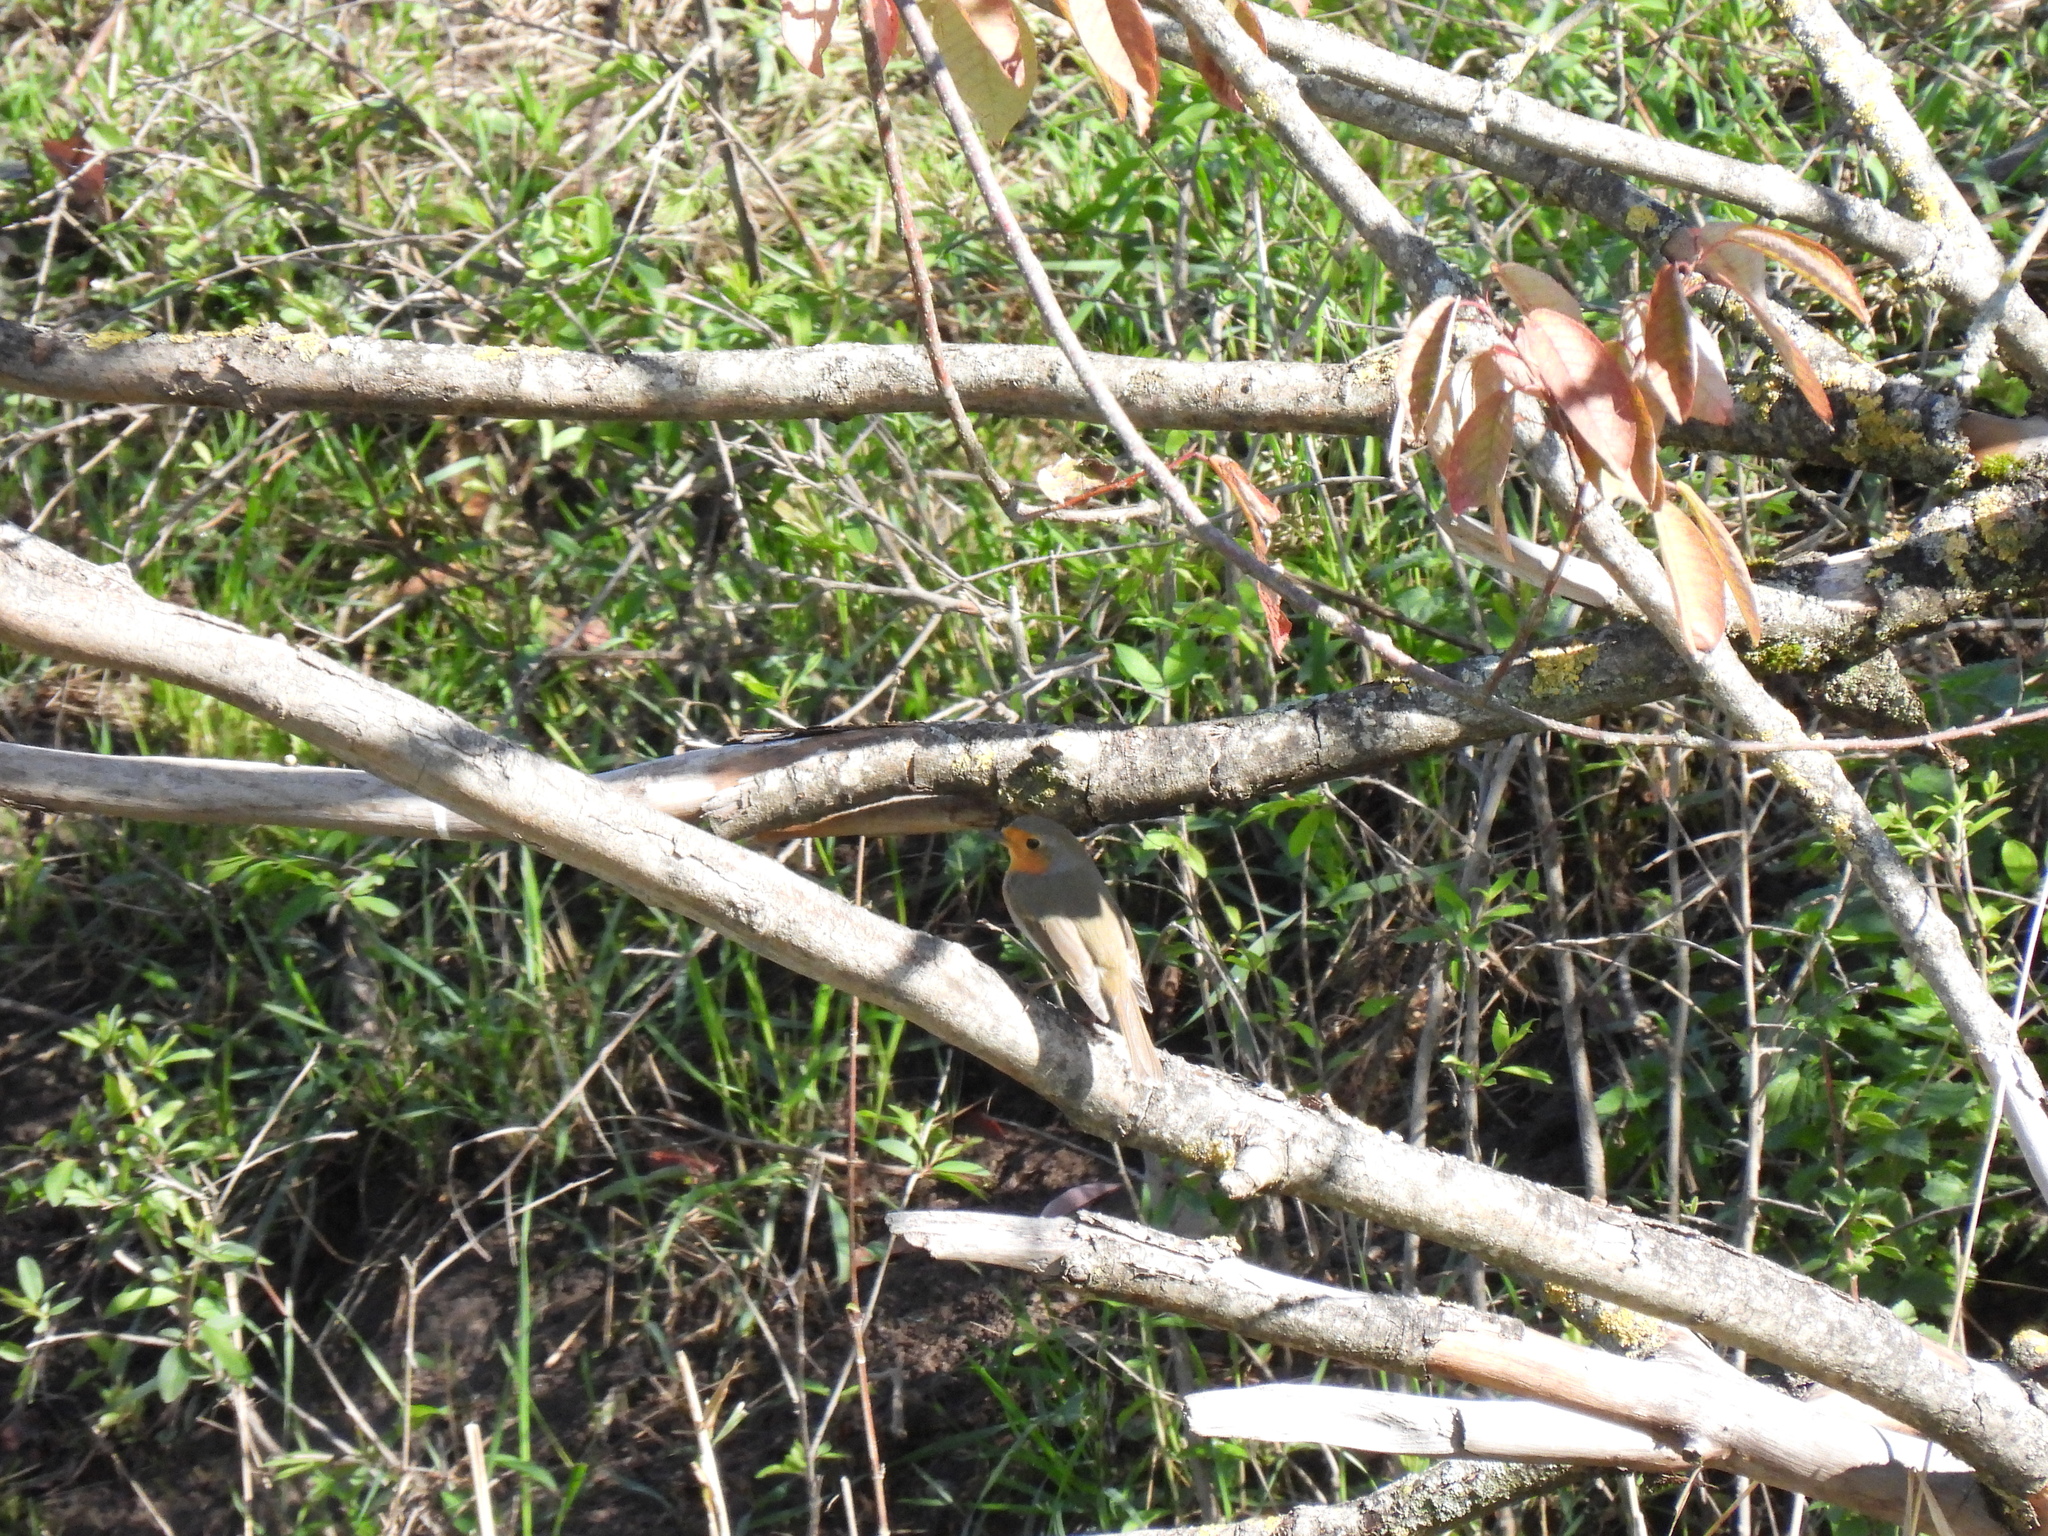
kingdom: Animalia
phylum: Chordata
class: Aves
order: Passeriformes
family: Muscicapidae
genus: Erithacus
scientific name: Erithacus rubecula
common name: European robin
